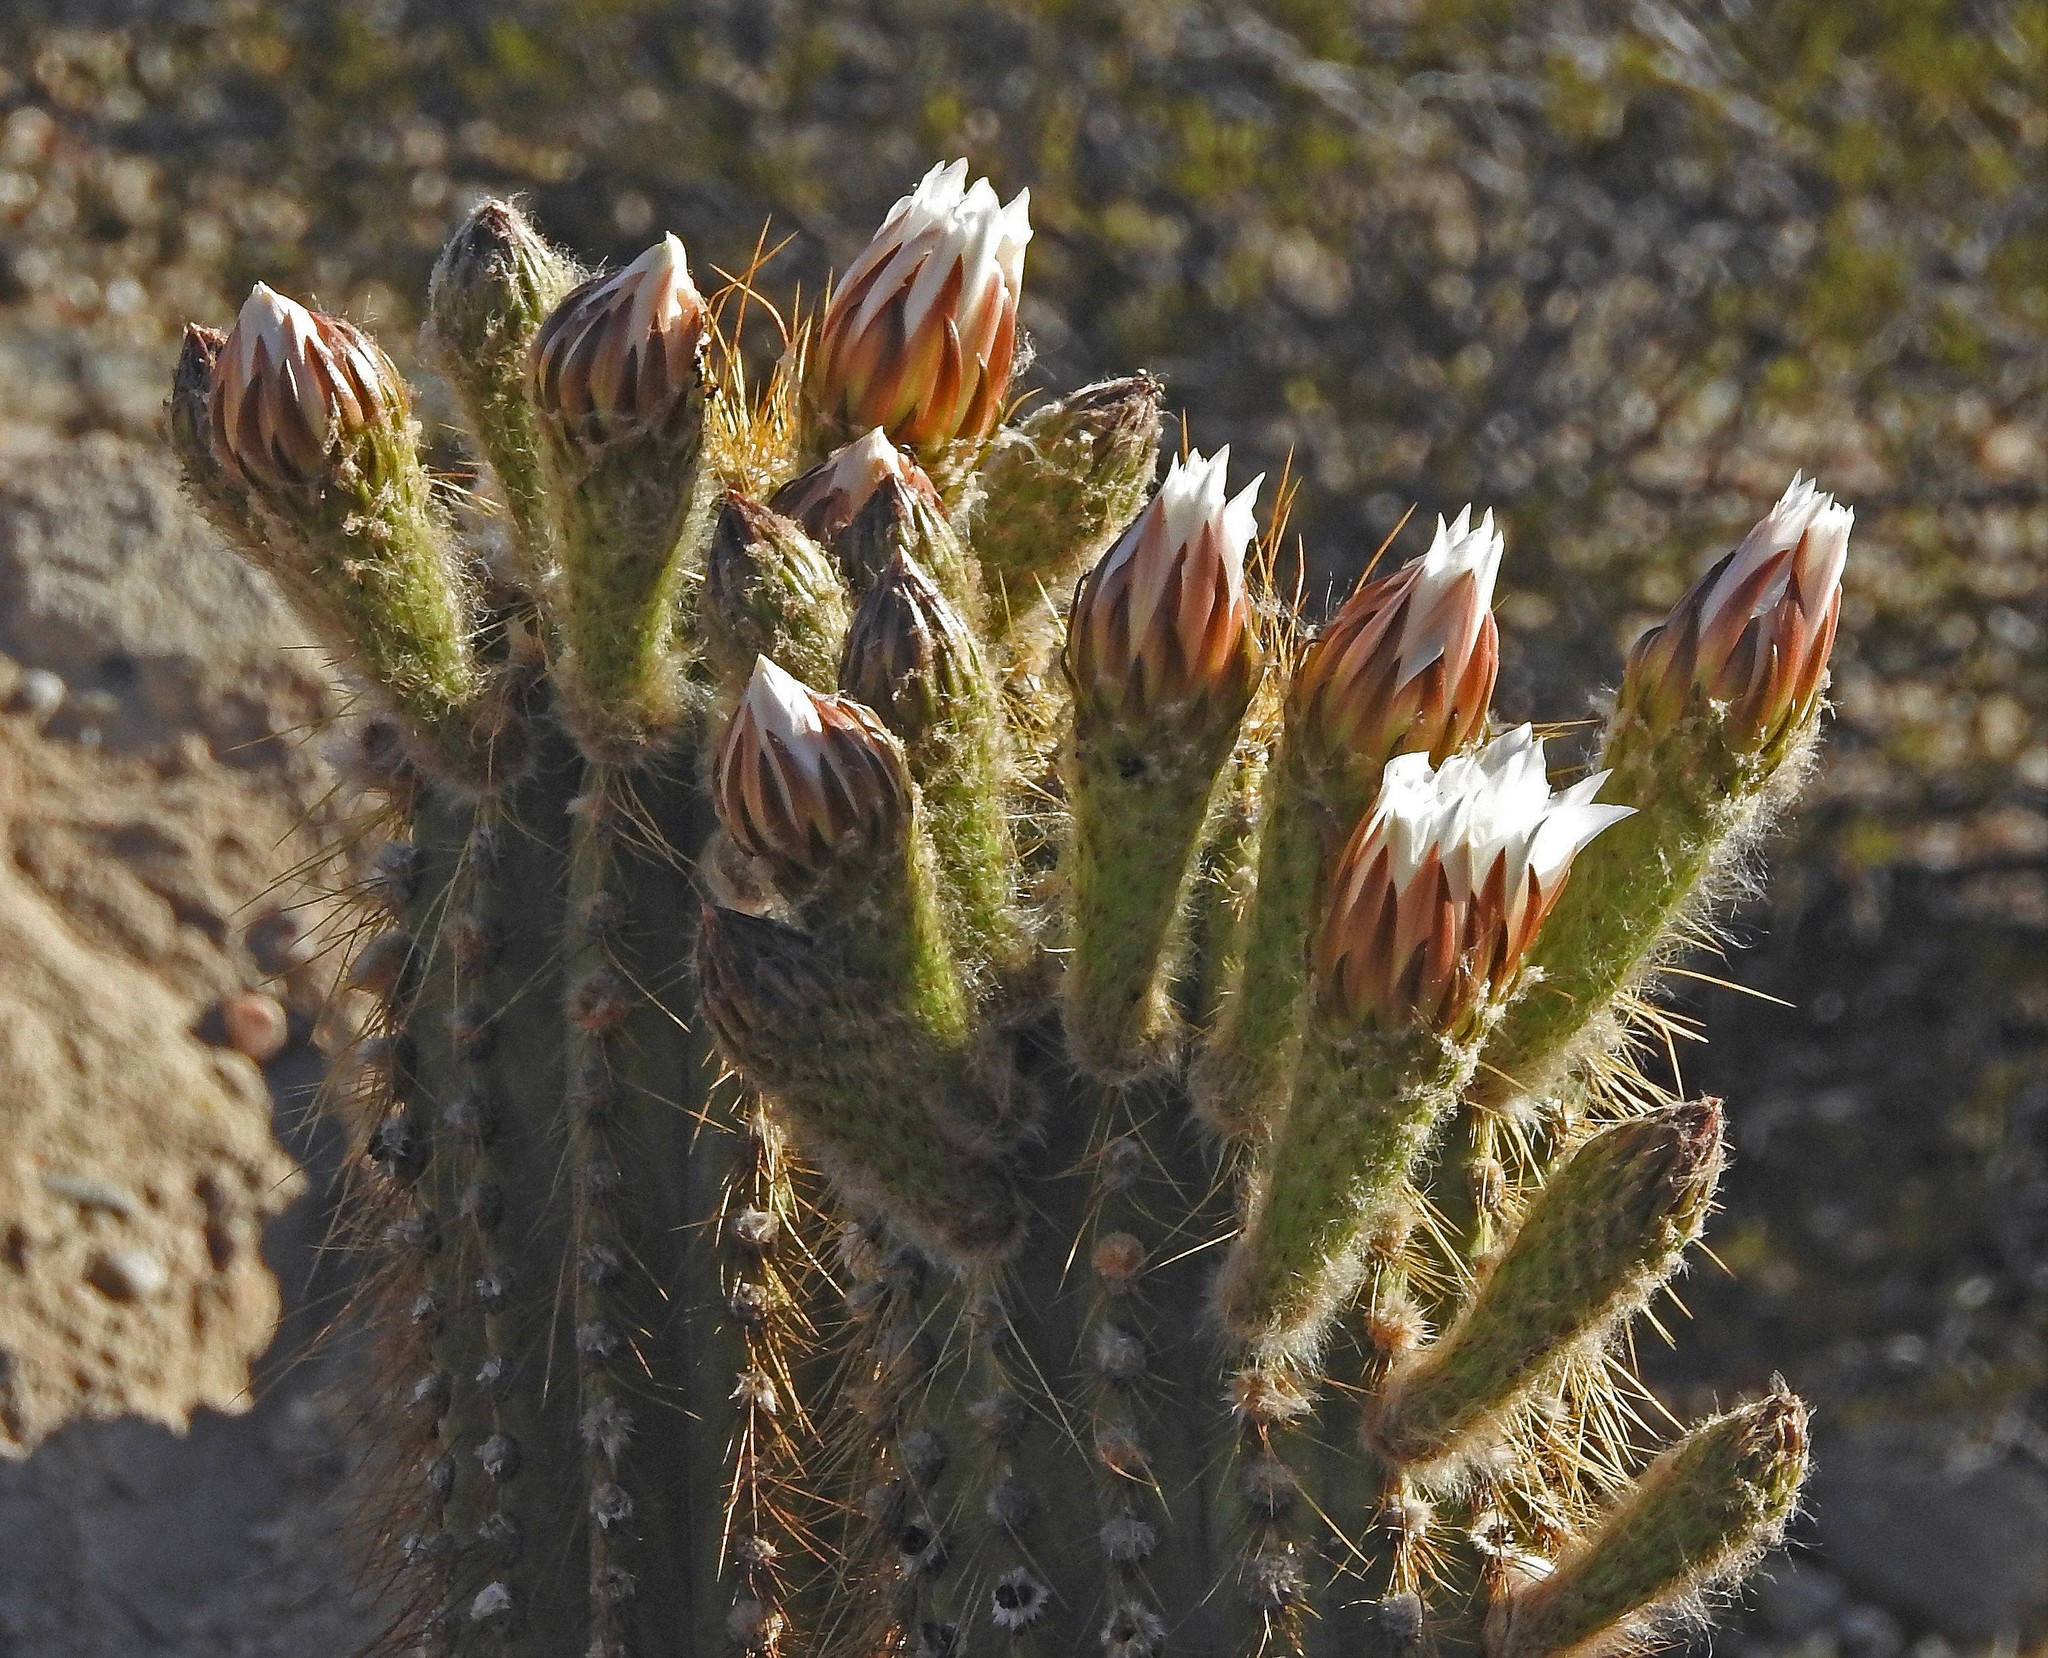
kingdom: Plantae
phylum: Tracheophyta
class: Magnoliopsida
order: Caryophyllales
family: Cactaceae
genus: Leucostele
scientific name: Leucostele terscheckii
